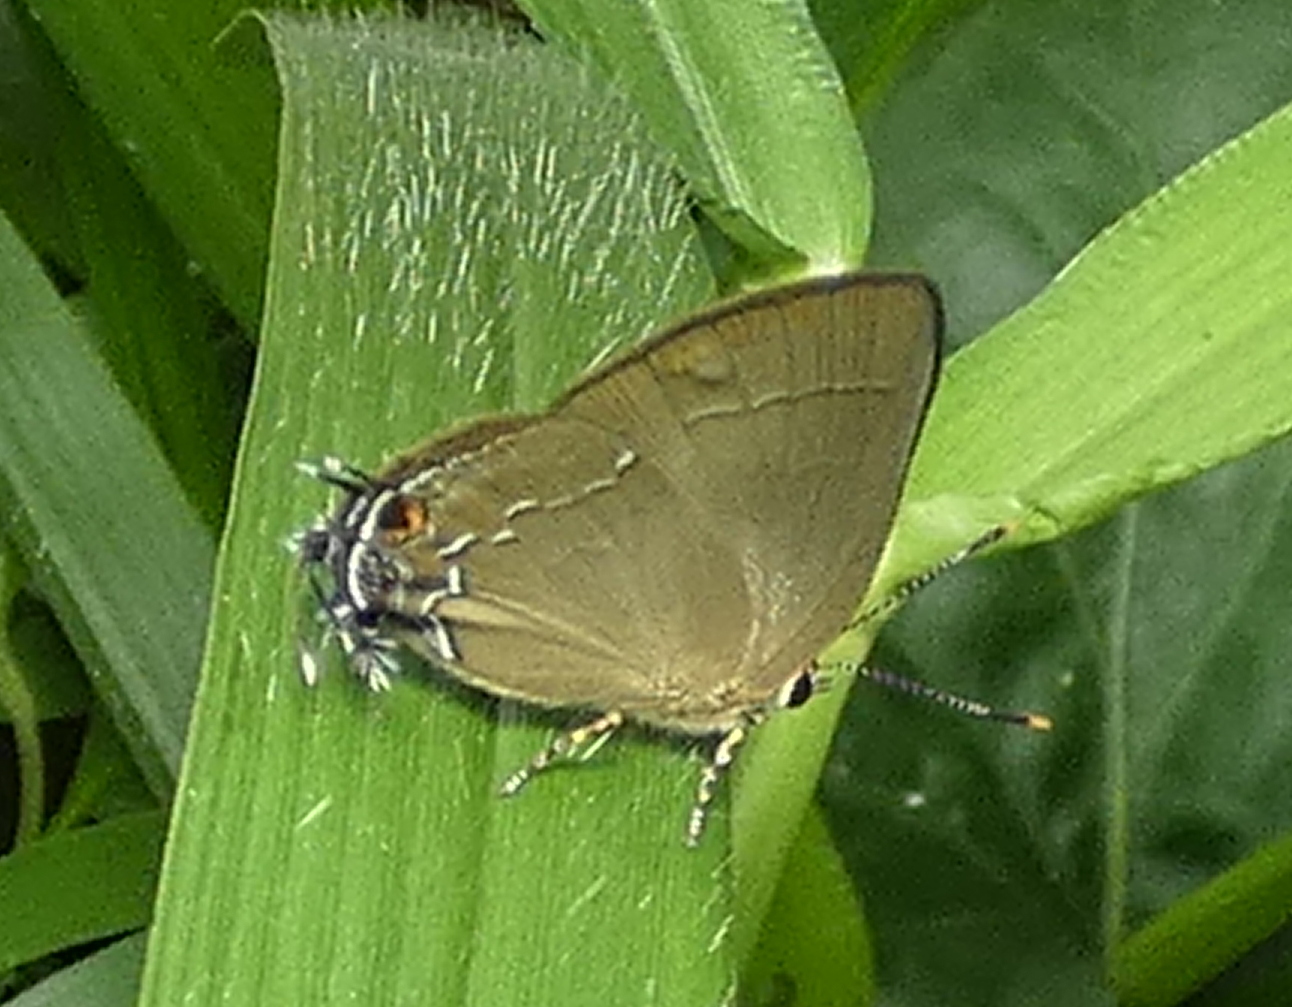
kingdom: Animalia
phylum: Arthropoda
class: Insecta
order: Lepidoptera
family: Lycaenidae
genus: Ziegleria
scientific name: Ziegleria hesperitis
